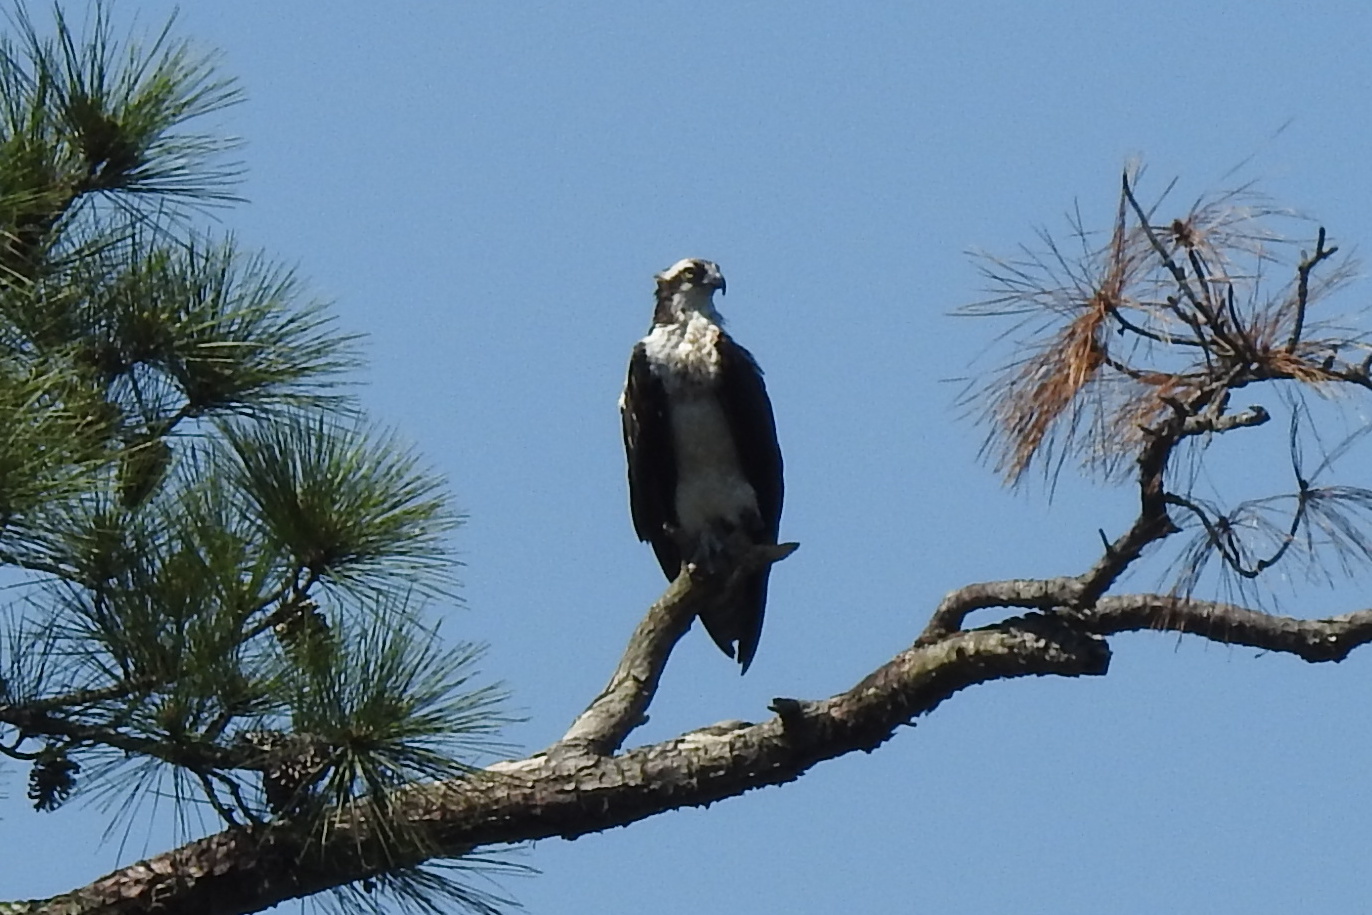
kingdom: Animalia
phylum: Chordata
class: Aves
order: Accipitriformes
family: Pandionidae
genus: Pandion
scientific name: Pandion haliaetus
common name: Osprey
